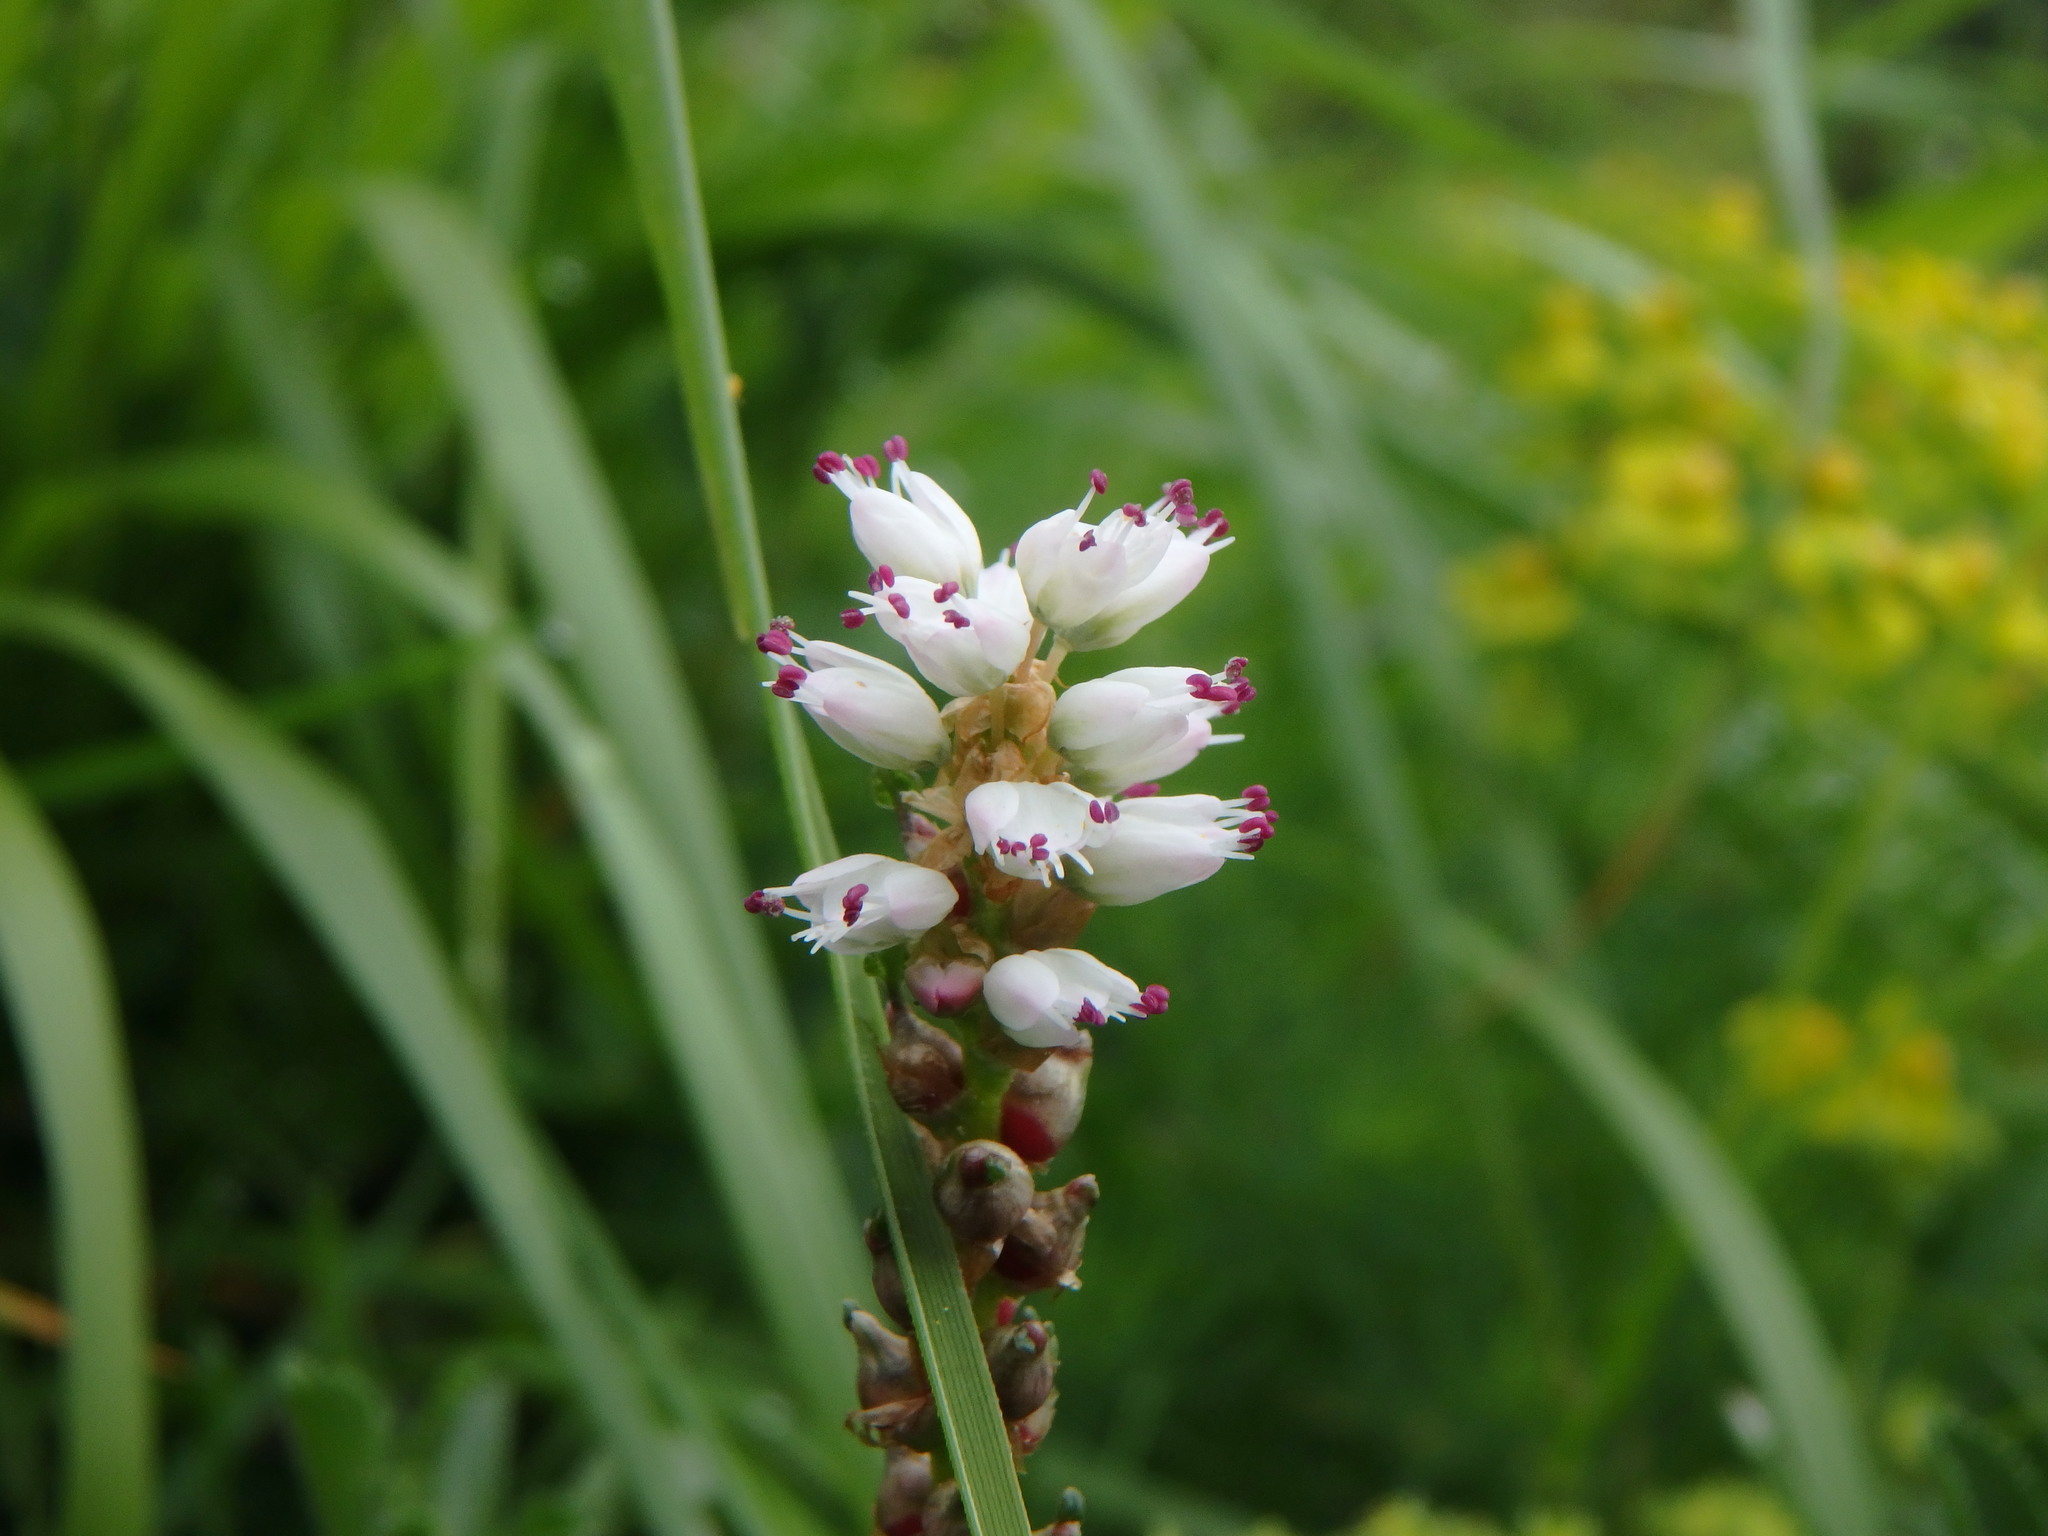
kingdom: Plantae
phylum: Tracheophyta
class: Magnoliopsida
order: Caryophyllales
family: Polygonaceae
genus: Bistorta
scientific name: Bistorta vivipara
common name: Alpine bistort
